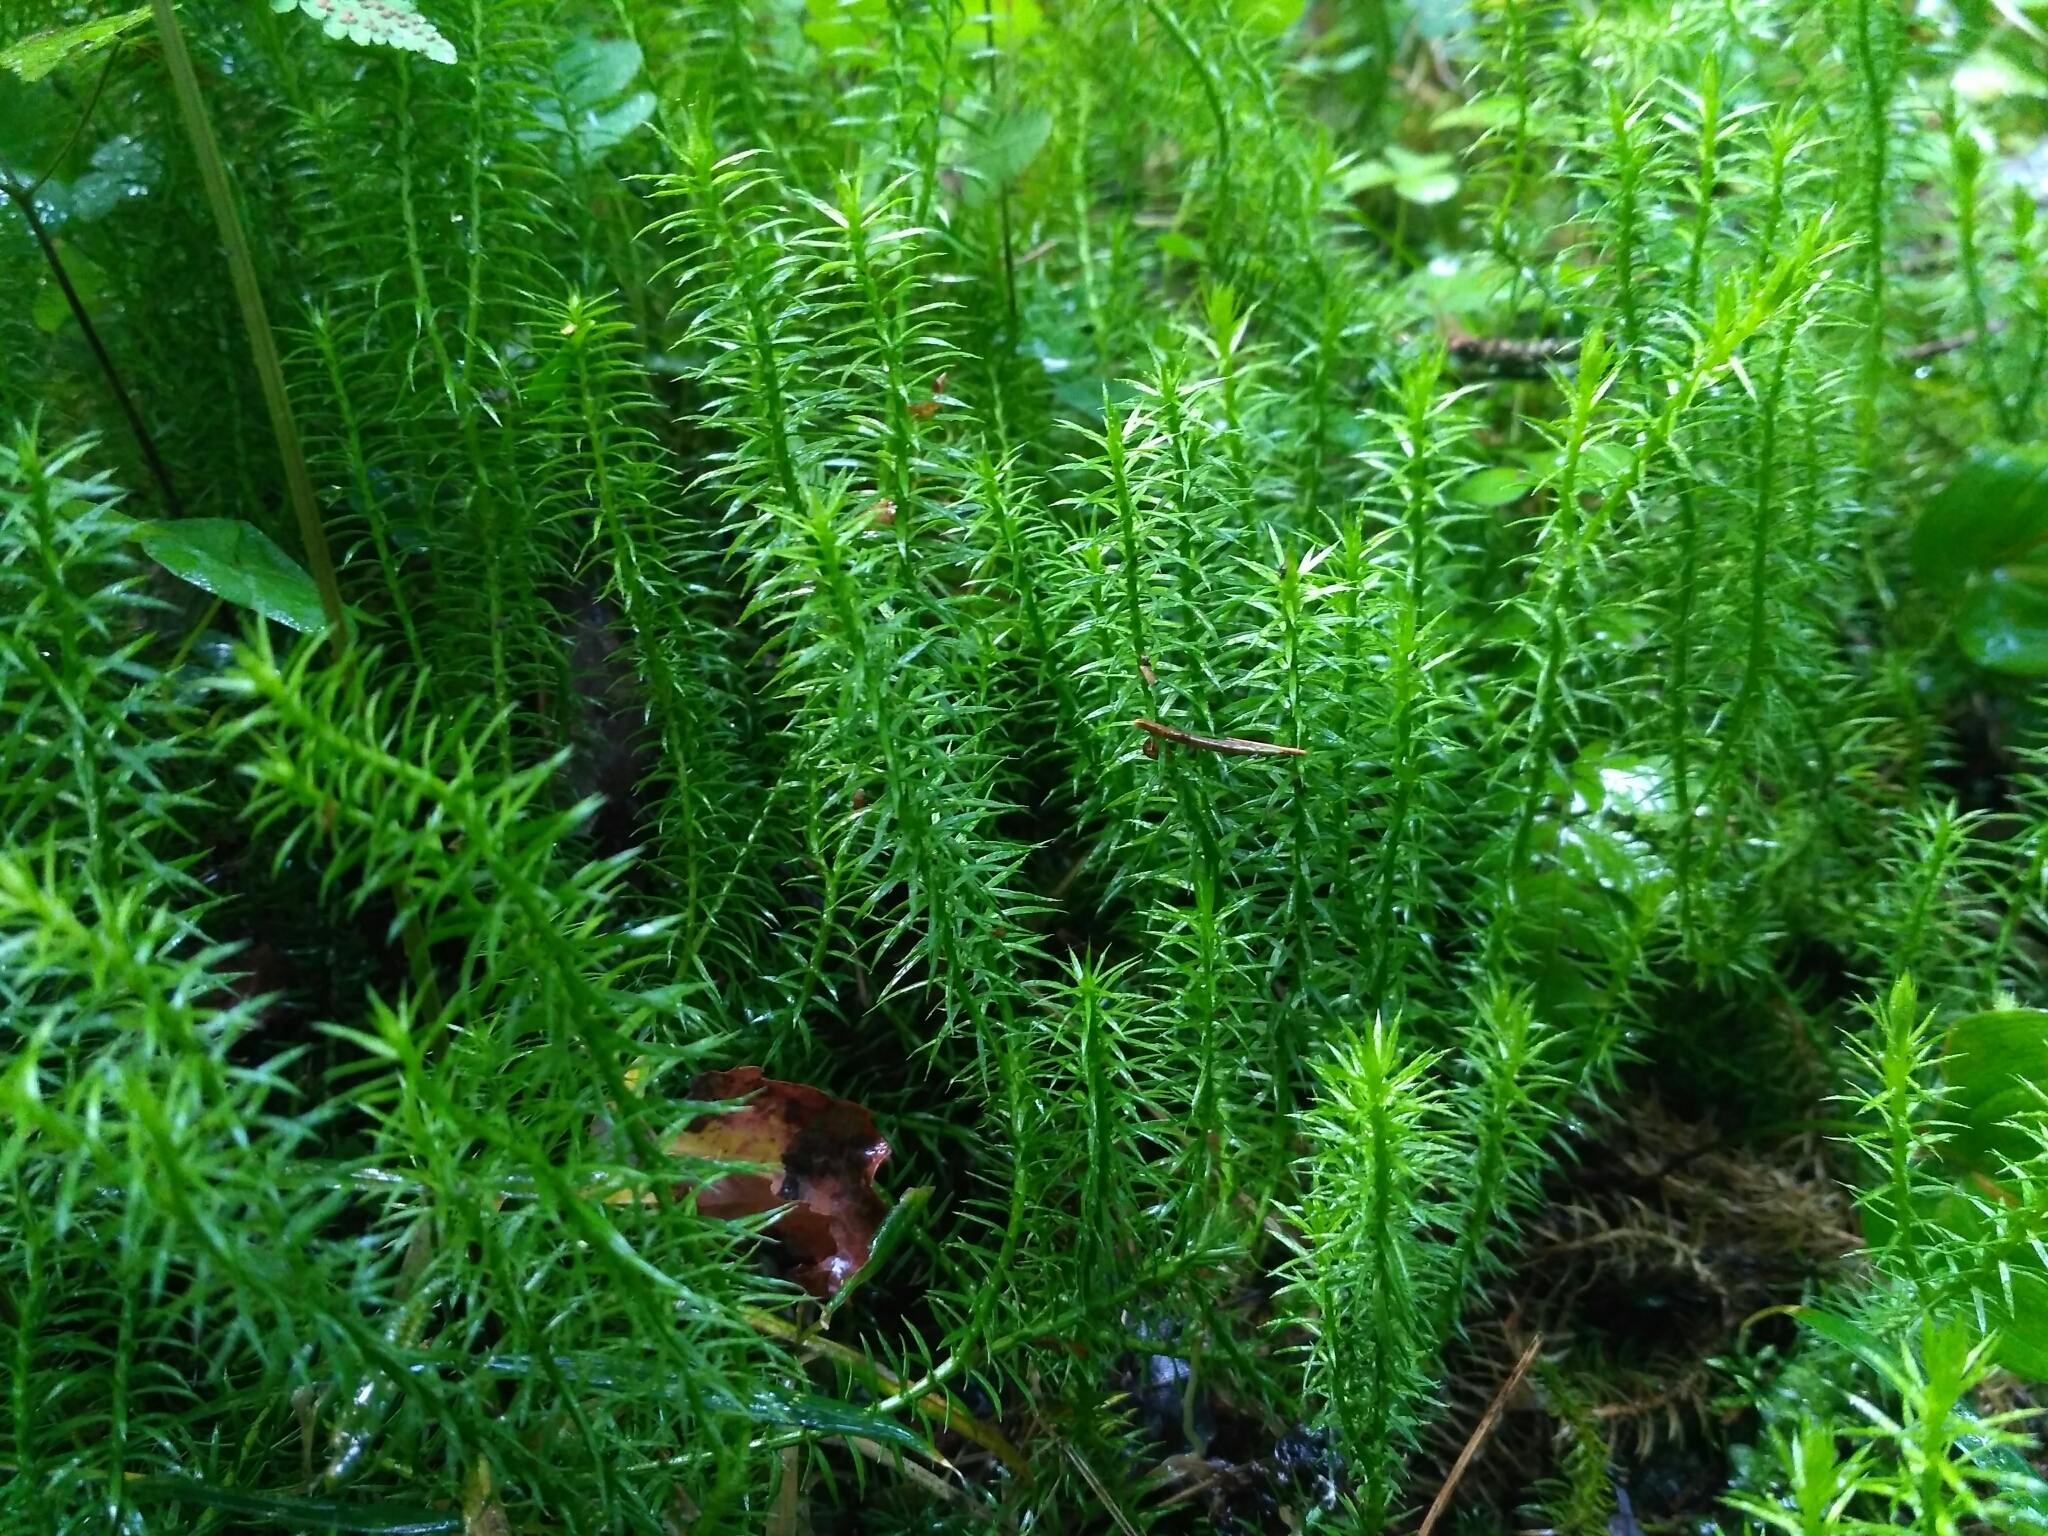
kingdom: Plantae
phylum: Tracheophyta
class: Lycopodiopsida
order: Lycopodiales
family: Lycopodiaceae
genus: Spinulum
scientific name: Spinulum annotinum
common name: Interrupted club-moss
